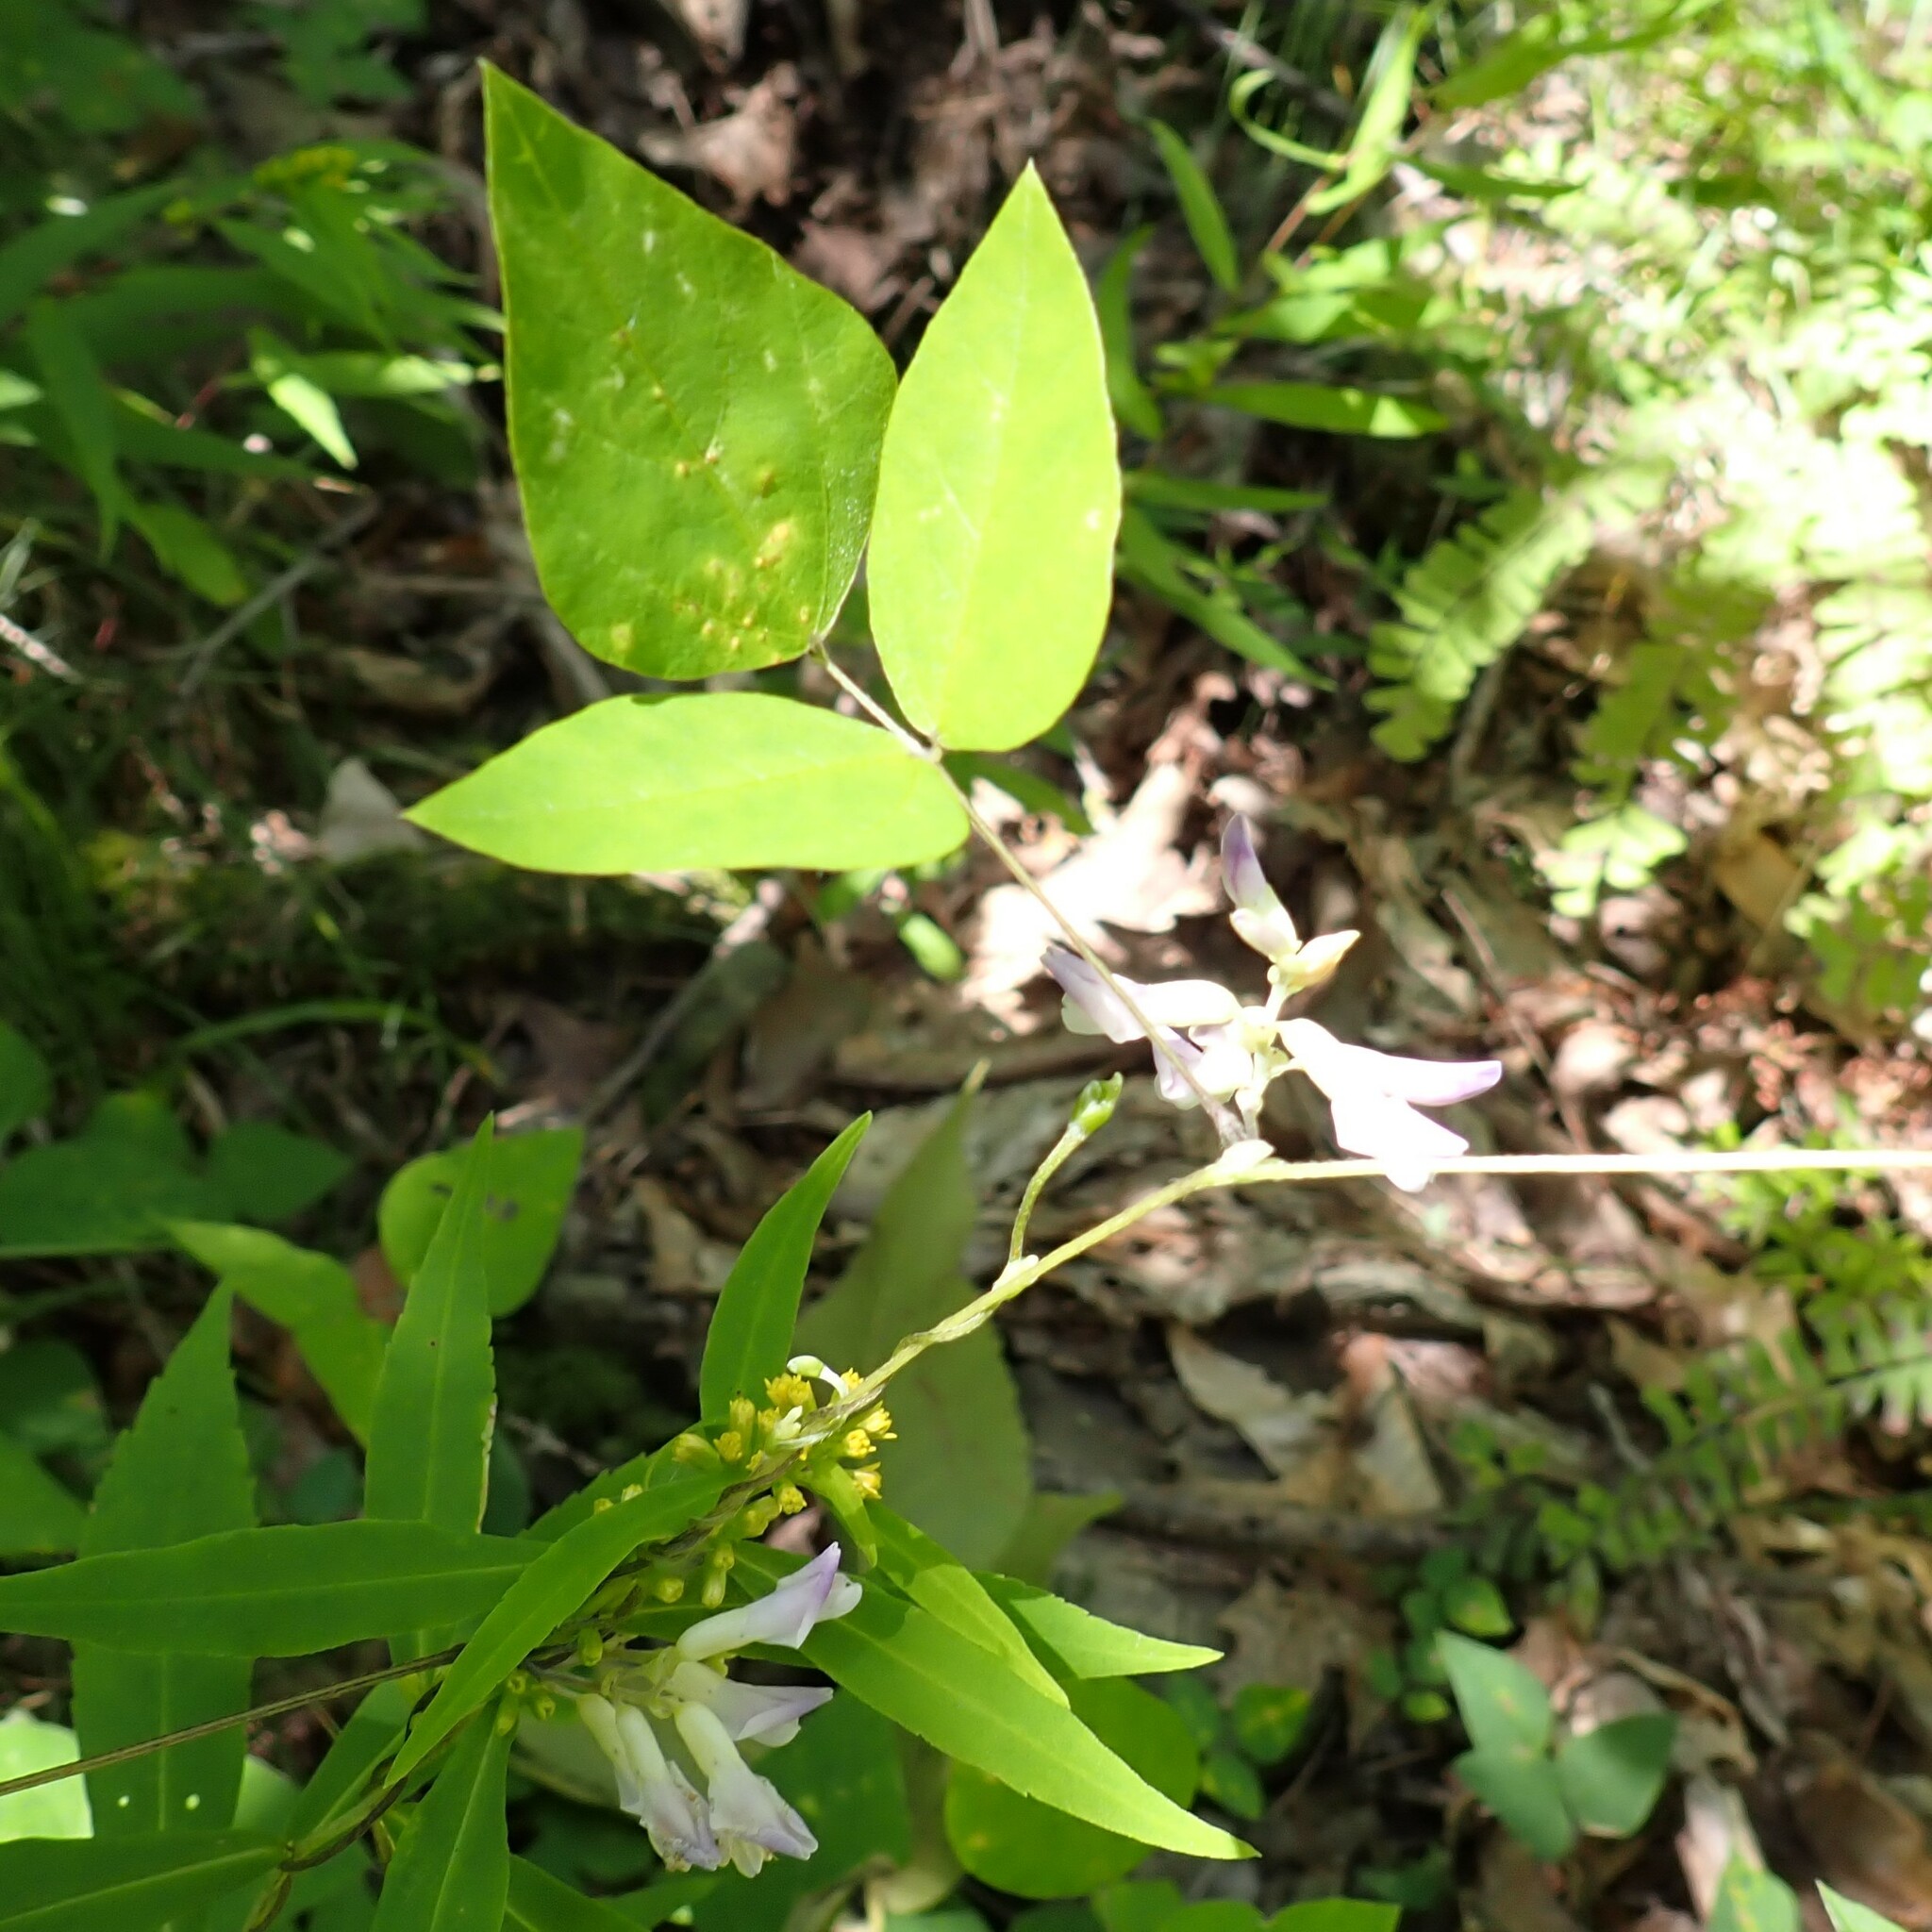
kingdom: Plantae
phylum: Tracheophyta
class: Magnoliopsida
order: Fabales
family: Fabaceae
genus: Amphicarpaea
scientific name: Amphicarpaea bracteata
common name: American hog peanut
